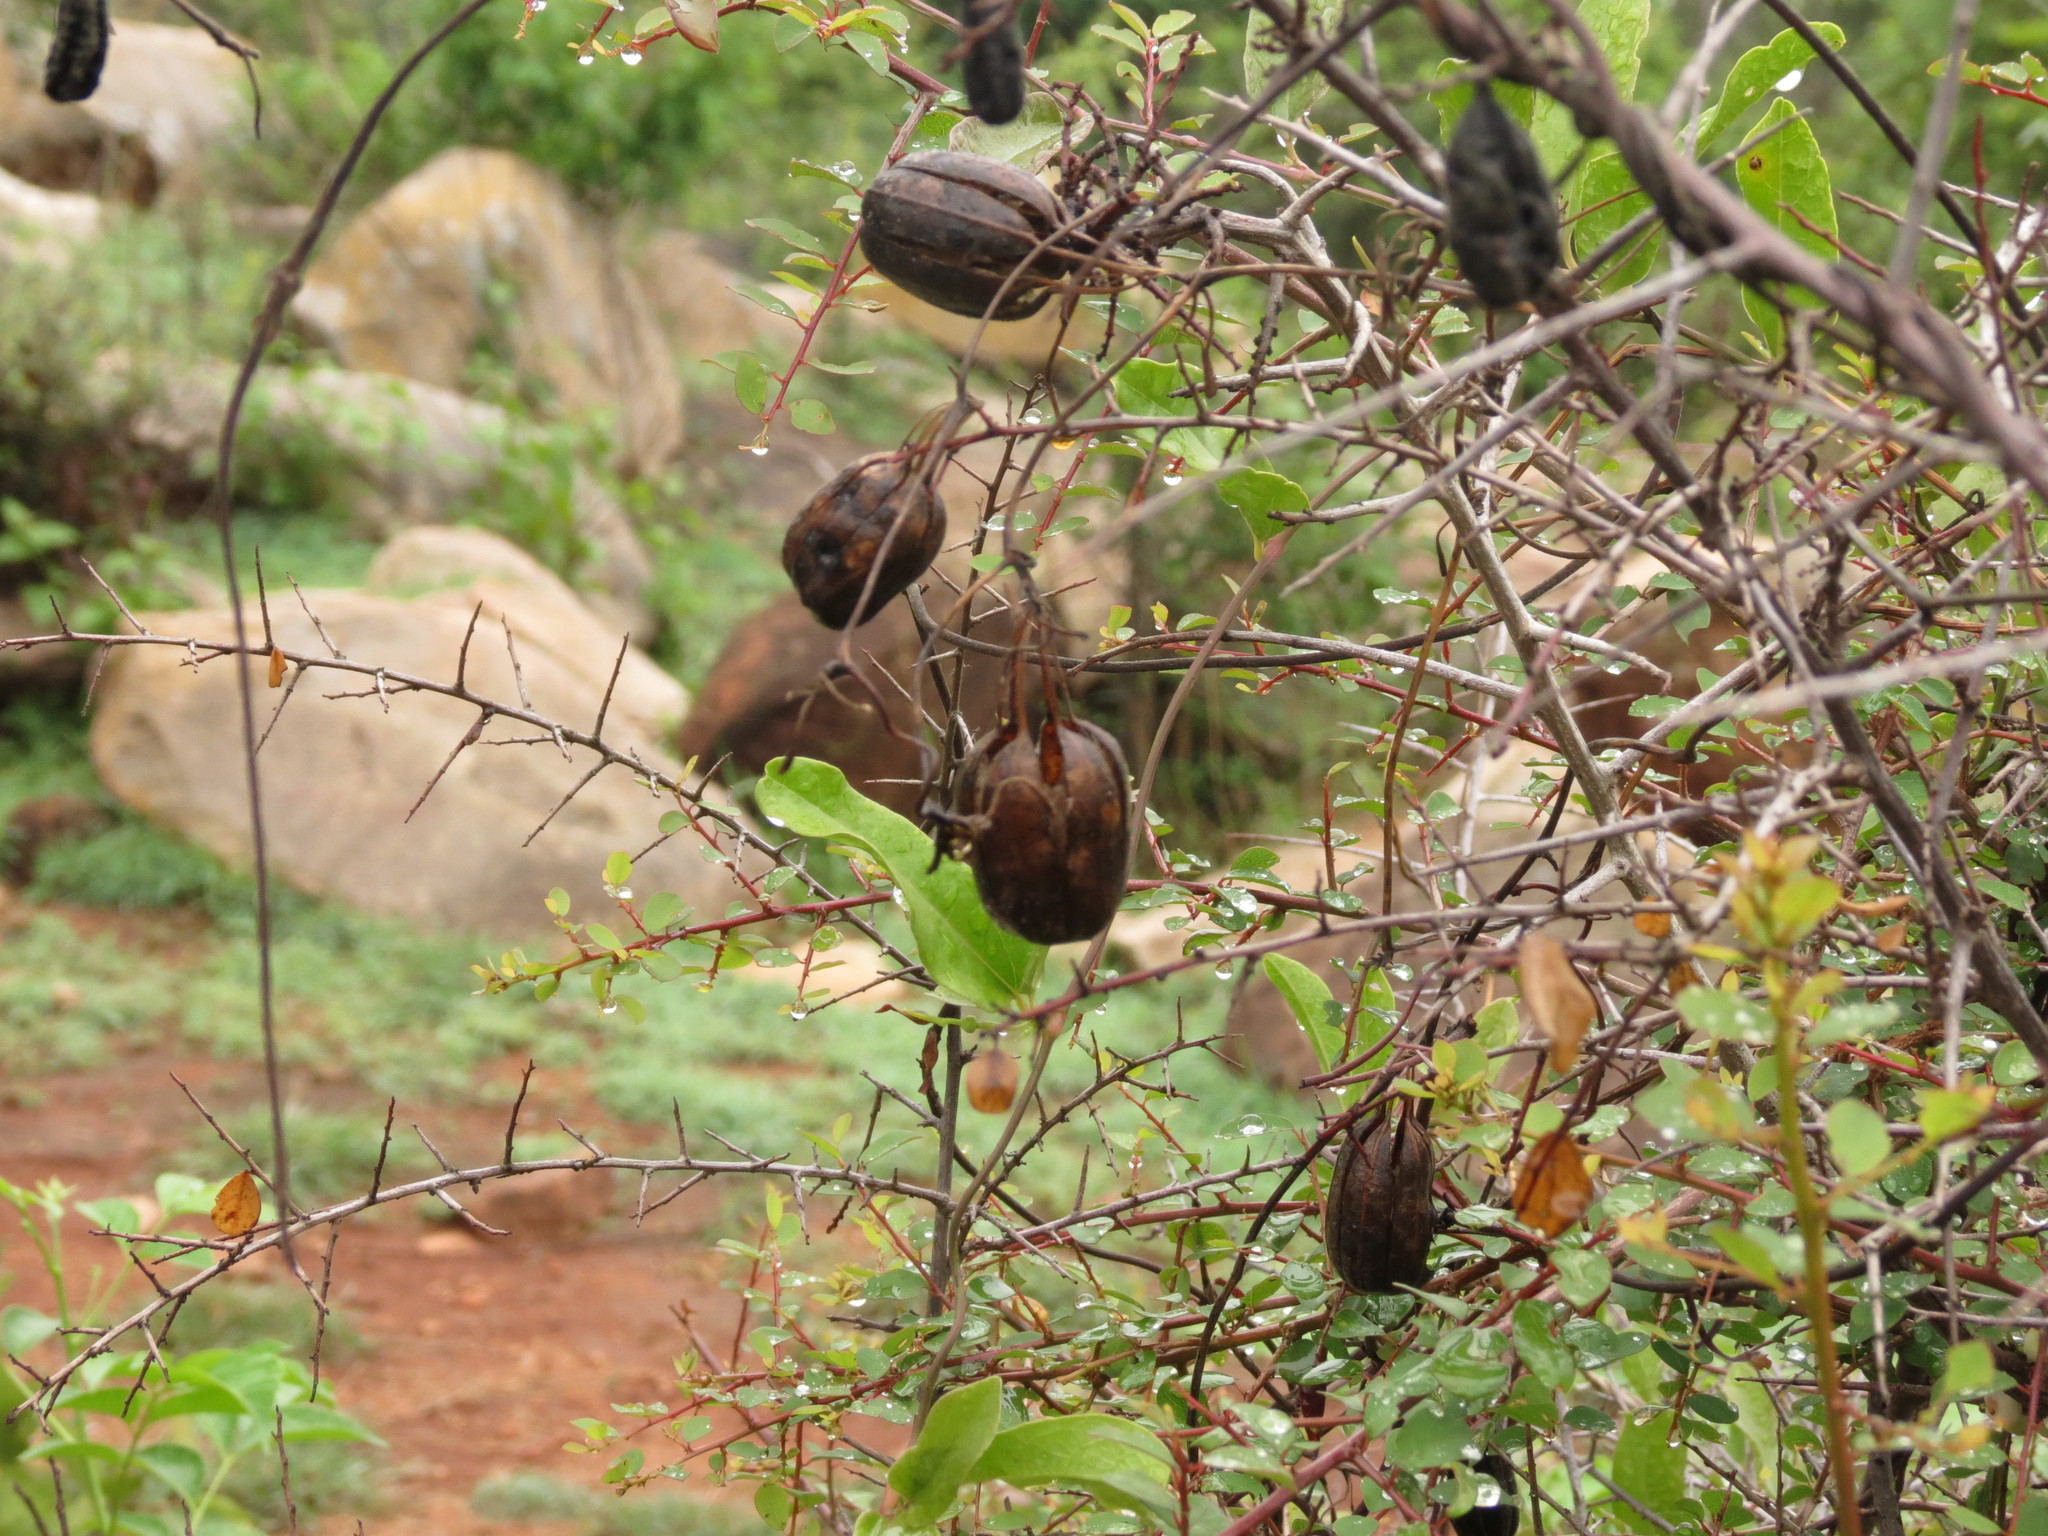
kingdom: Plantae
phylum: Tracheophyta
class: Magnoliopsida
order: Piperales
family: Aristolochiaceae
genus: Aristolochia
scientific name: Aristolochia indica
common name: Indian birthwort
